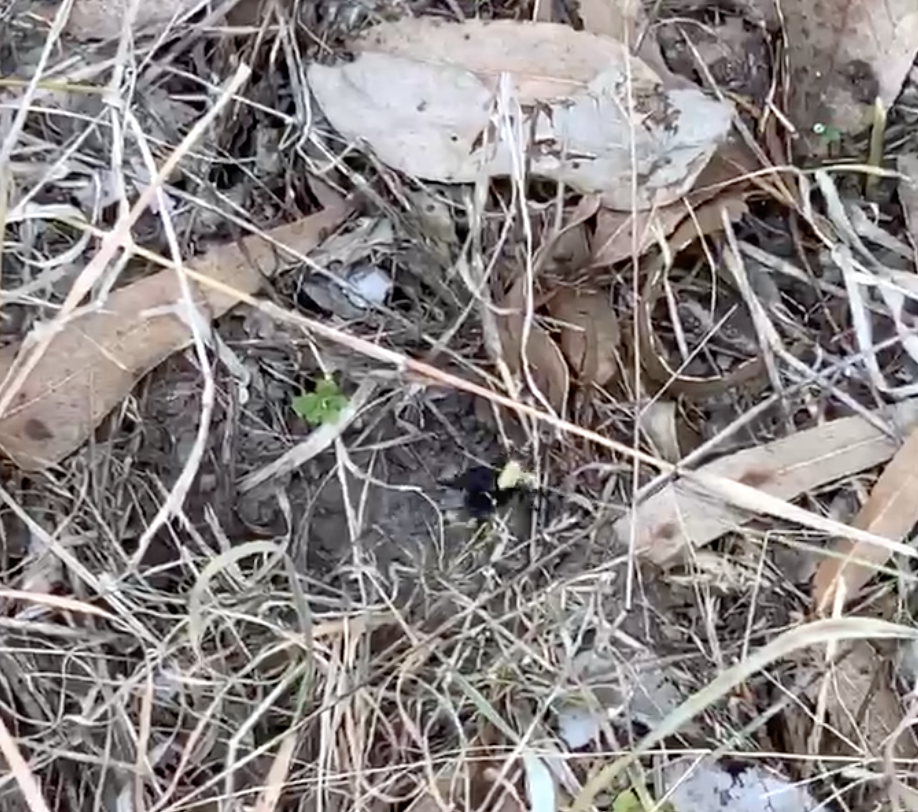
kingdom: Animalia
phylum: Arthropoda
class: Insecta
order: Hymenoptera
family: Apidae
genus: Bombus
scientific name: Bombus vosnesenskii
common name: Vosnesensky bumble bee
